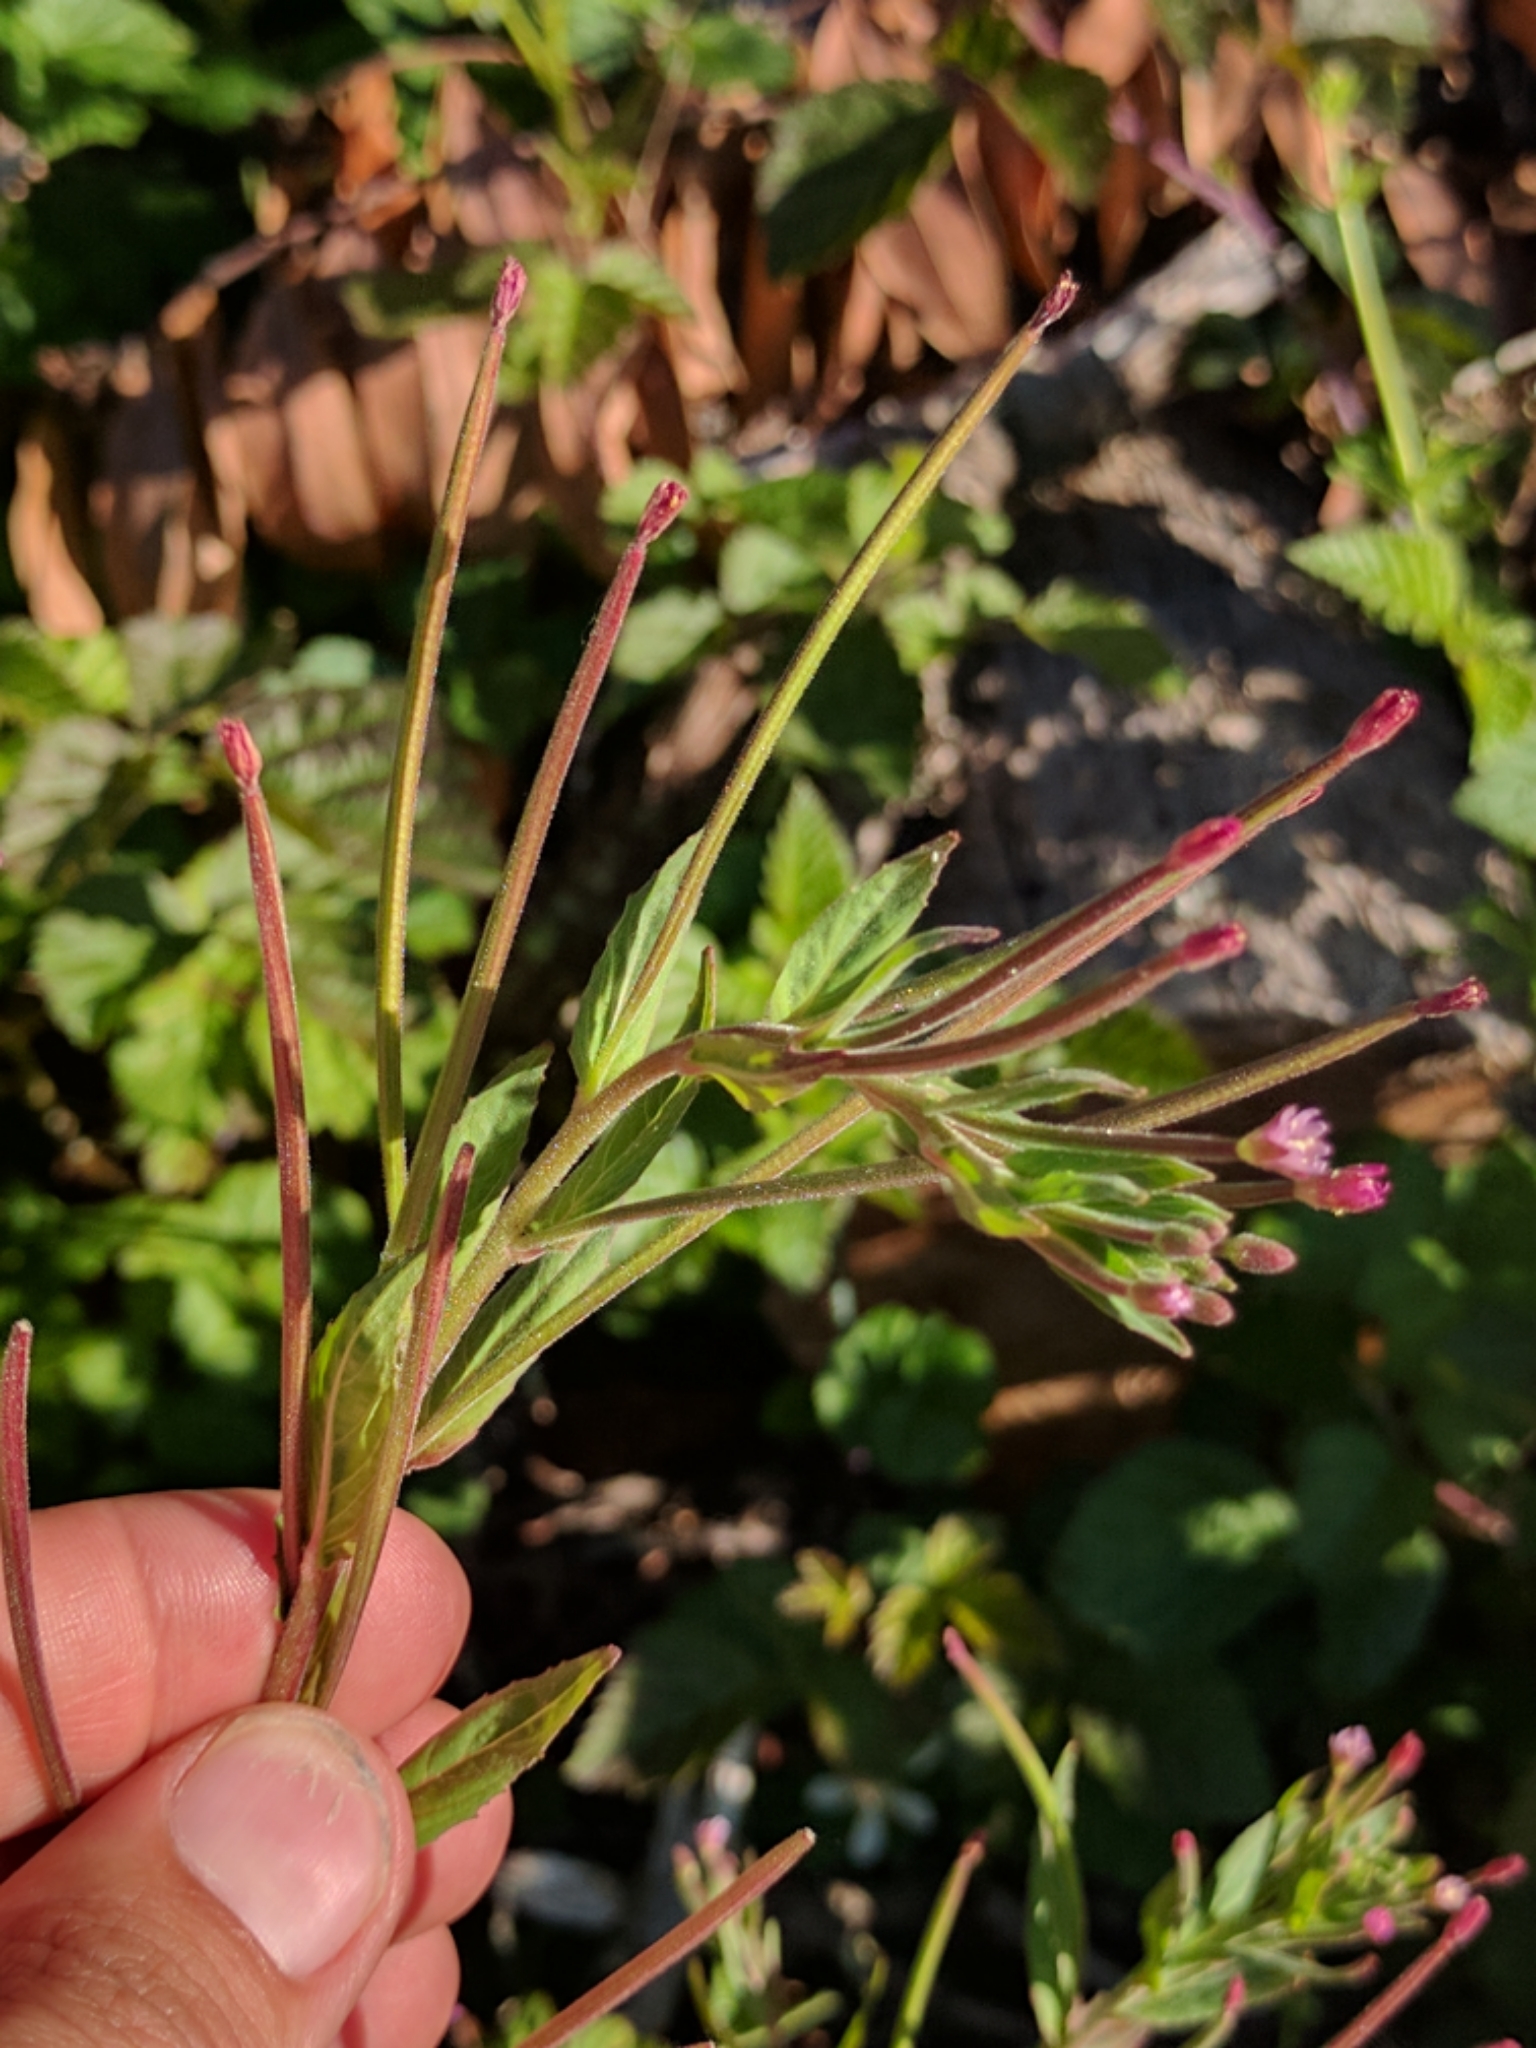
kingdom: Plantae
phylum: Tracheophyta
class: Magnoliopsida
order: Myrtales
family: Onagraceae
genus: Epilobium
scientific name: Epilobium ciliatum
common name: American willowherb
